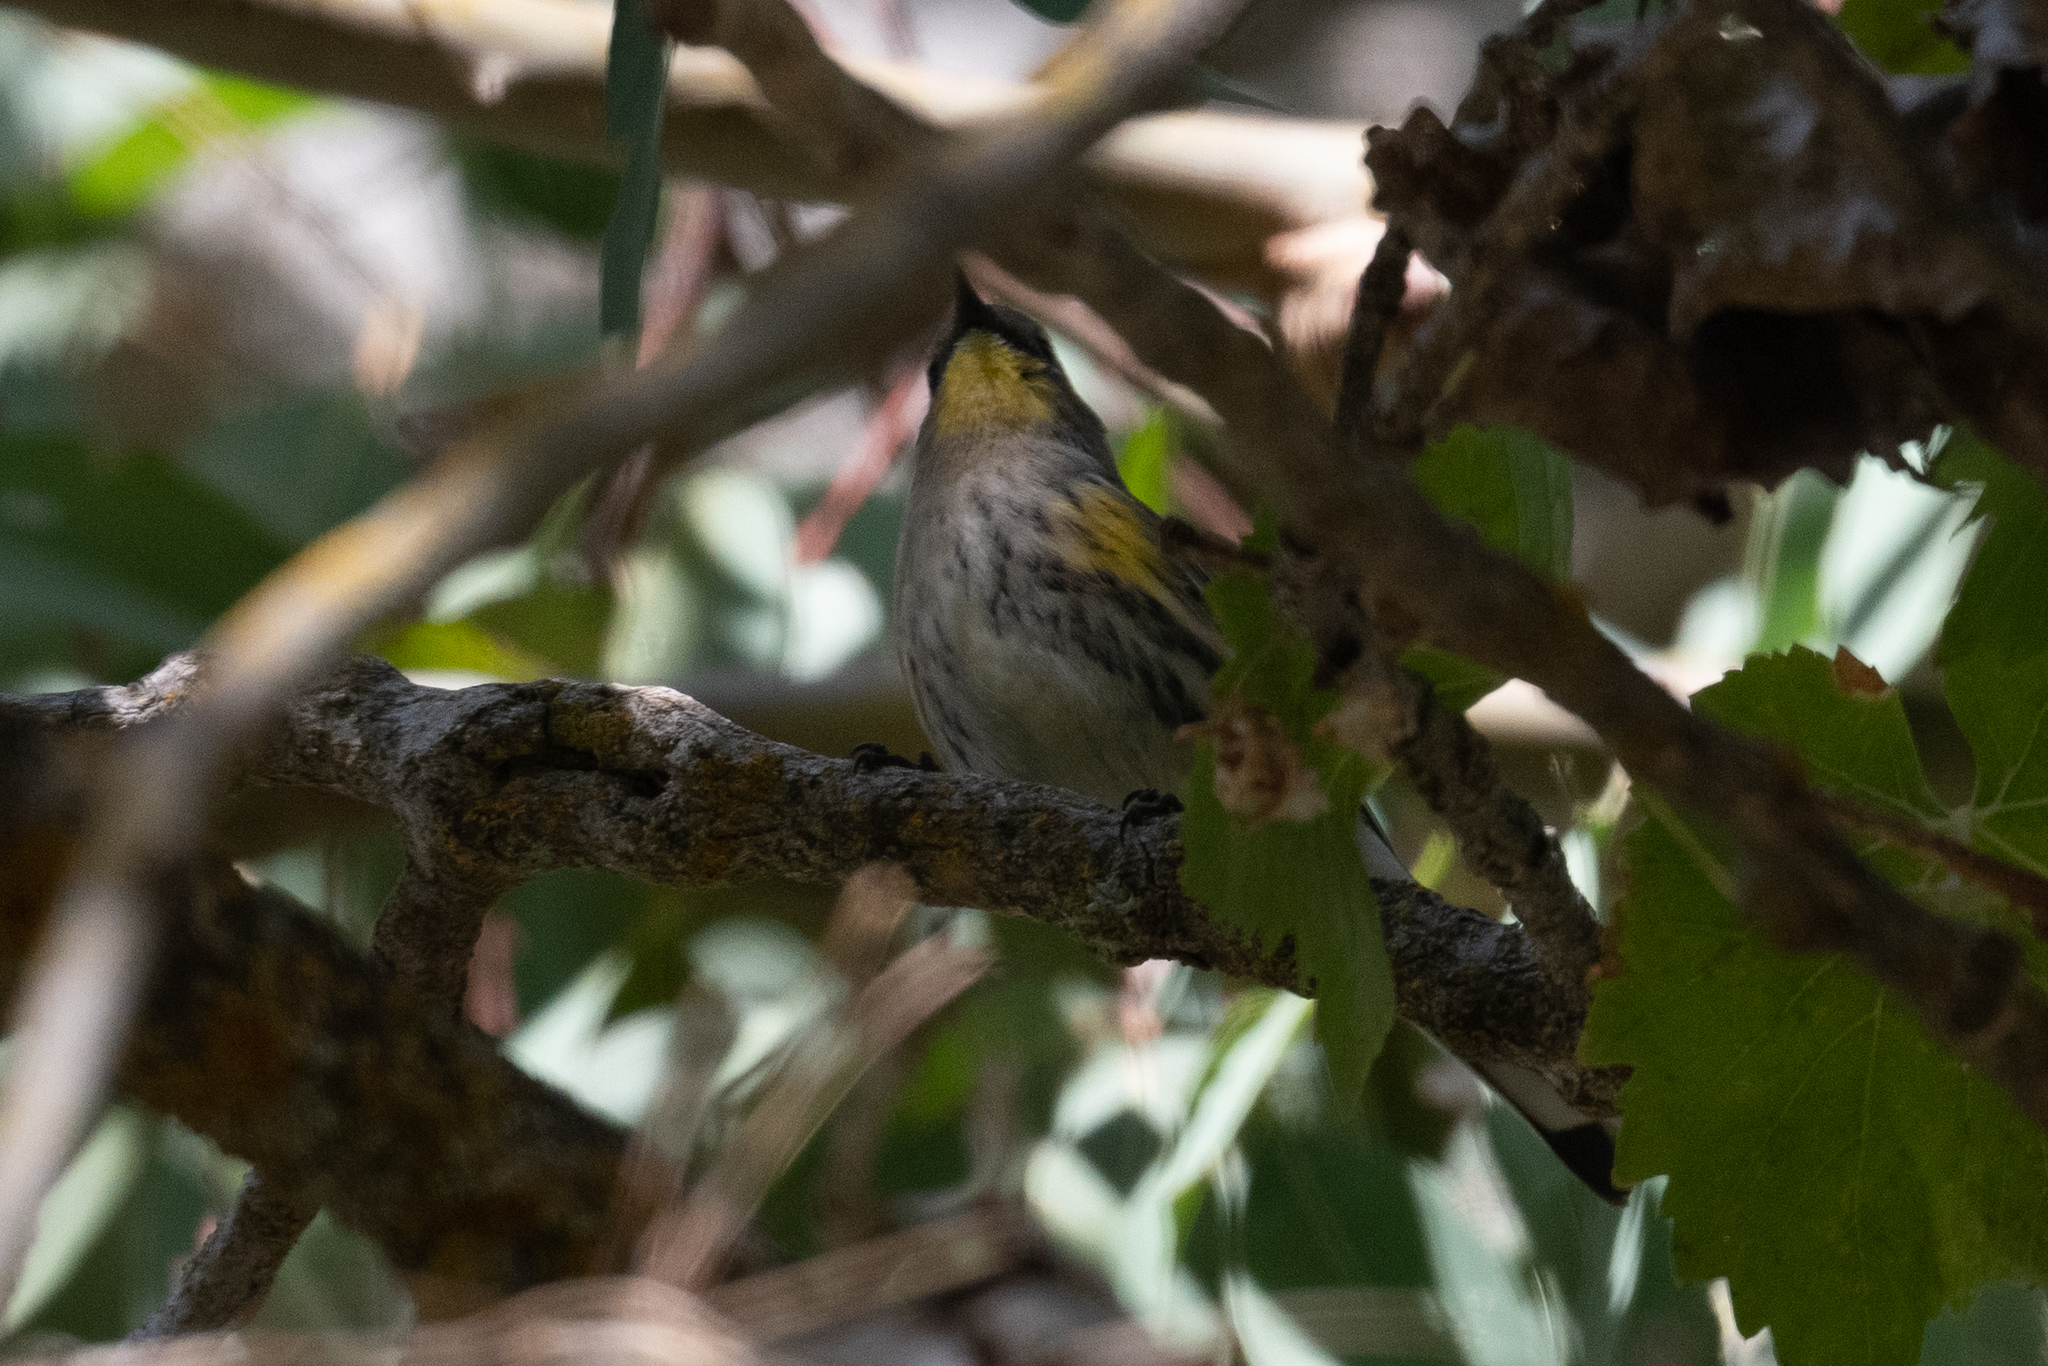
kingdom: Animalia
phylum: Chordata
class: Aves
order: Passeriformes
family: Parulidae
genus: Setophaga
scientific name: Setophaga coronata
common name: Myrtle warbler
